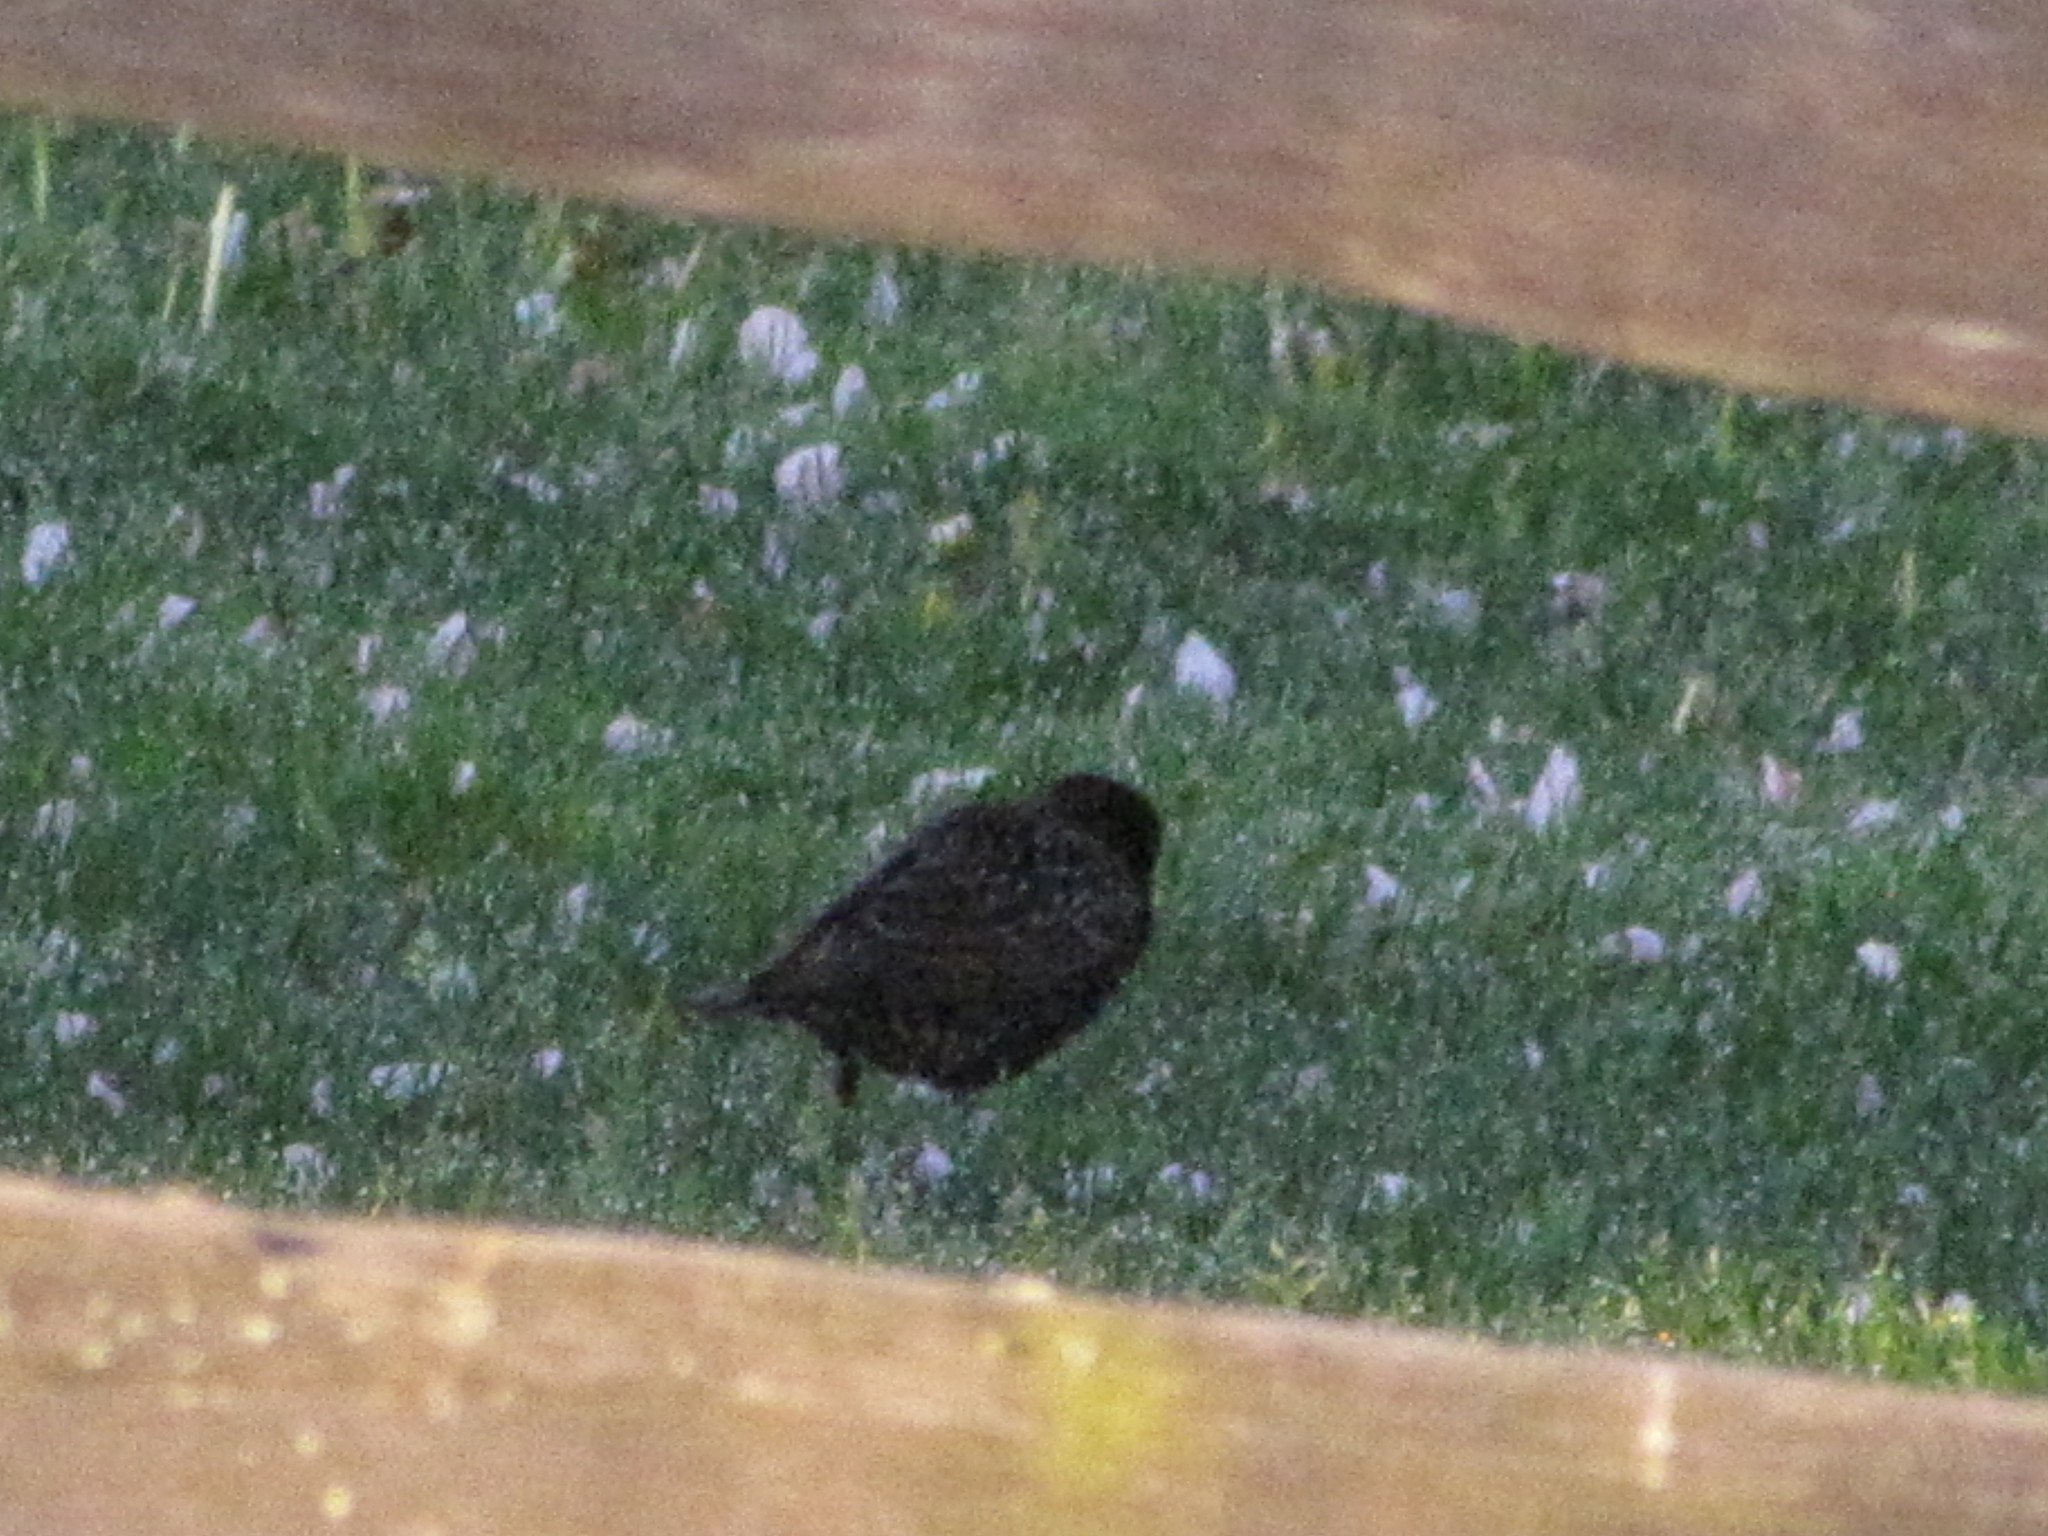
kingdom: Animalia
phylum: Chordata
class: Aves
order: Passeriformes
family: Sturnidae
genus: Sturnus
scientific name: Sturnus vulgaris
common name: Common starling
